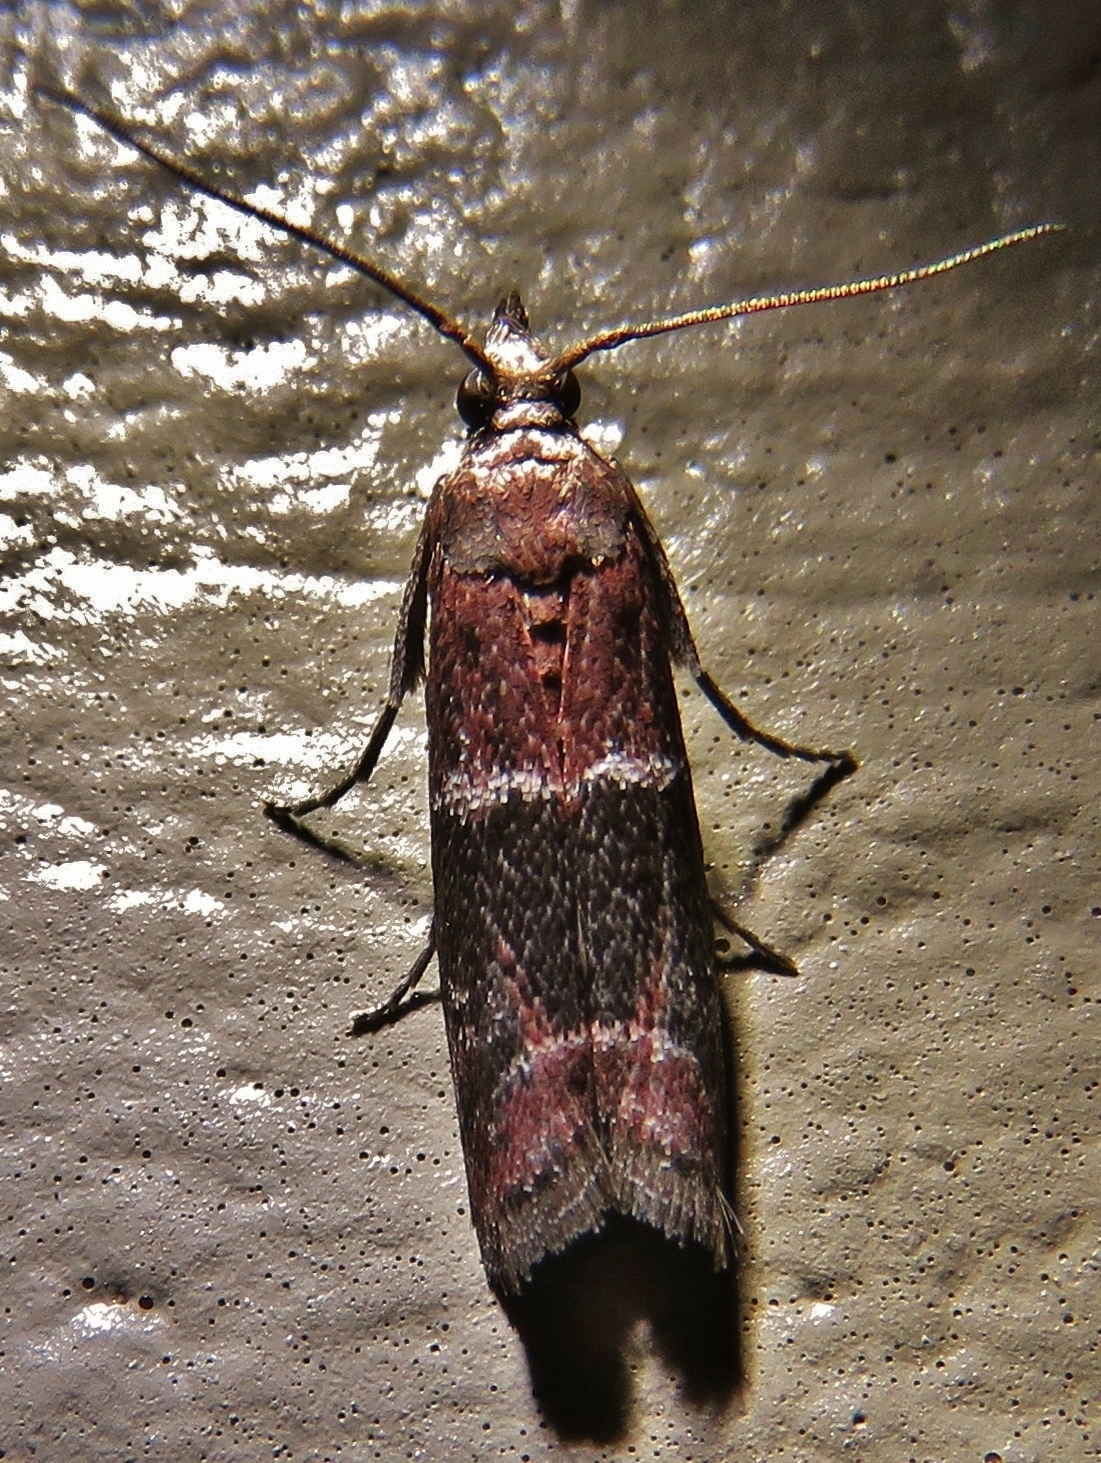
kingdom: Animalia
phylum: Arthropoda
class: Insecta
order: Lepidoptera
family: Pyralidae
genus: Moodna
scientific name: Moodna ostrinella
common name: Darker moodna moth
